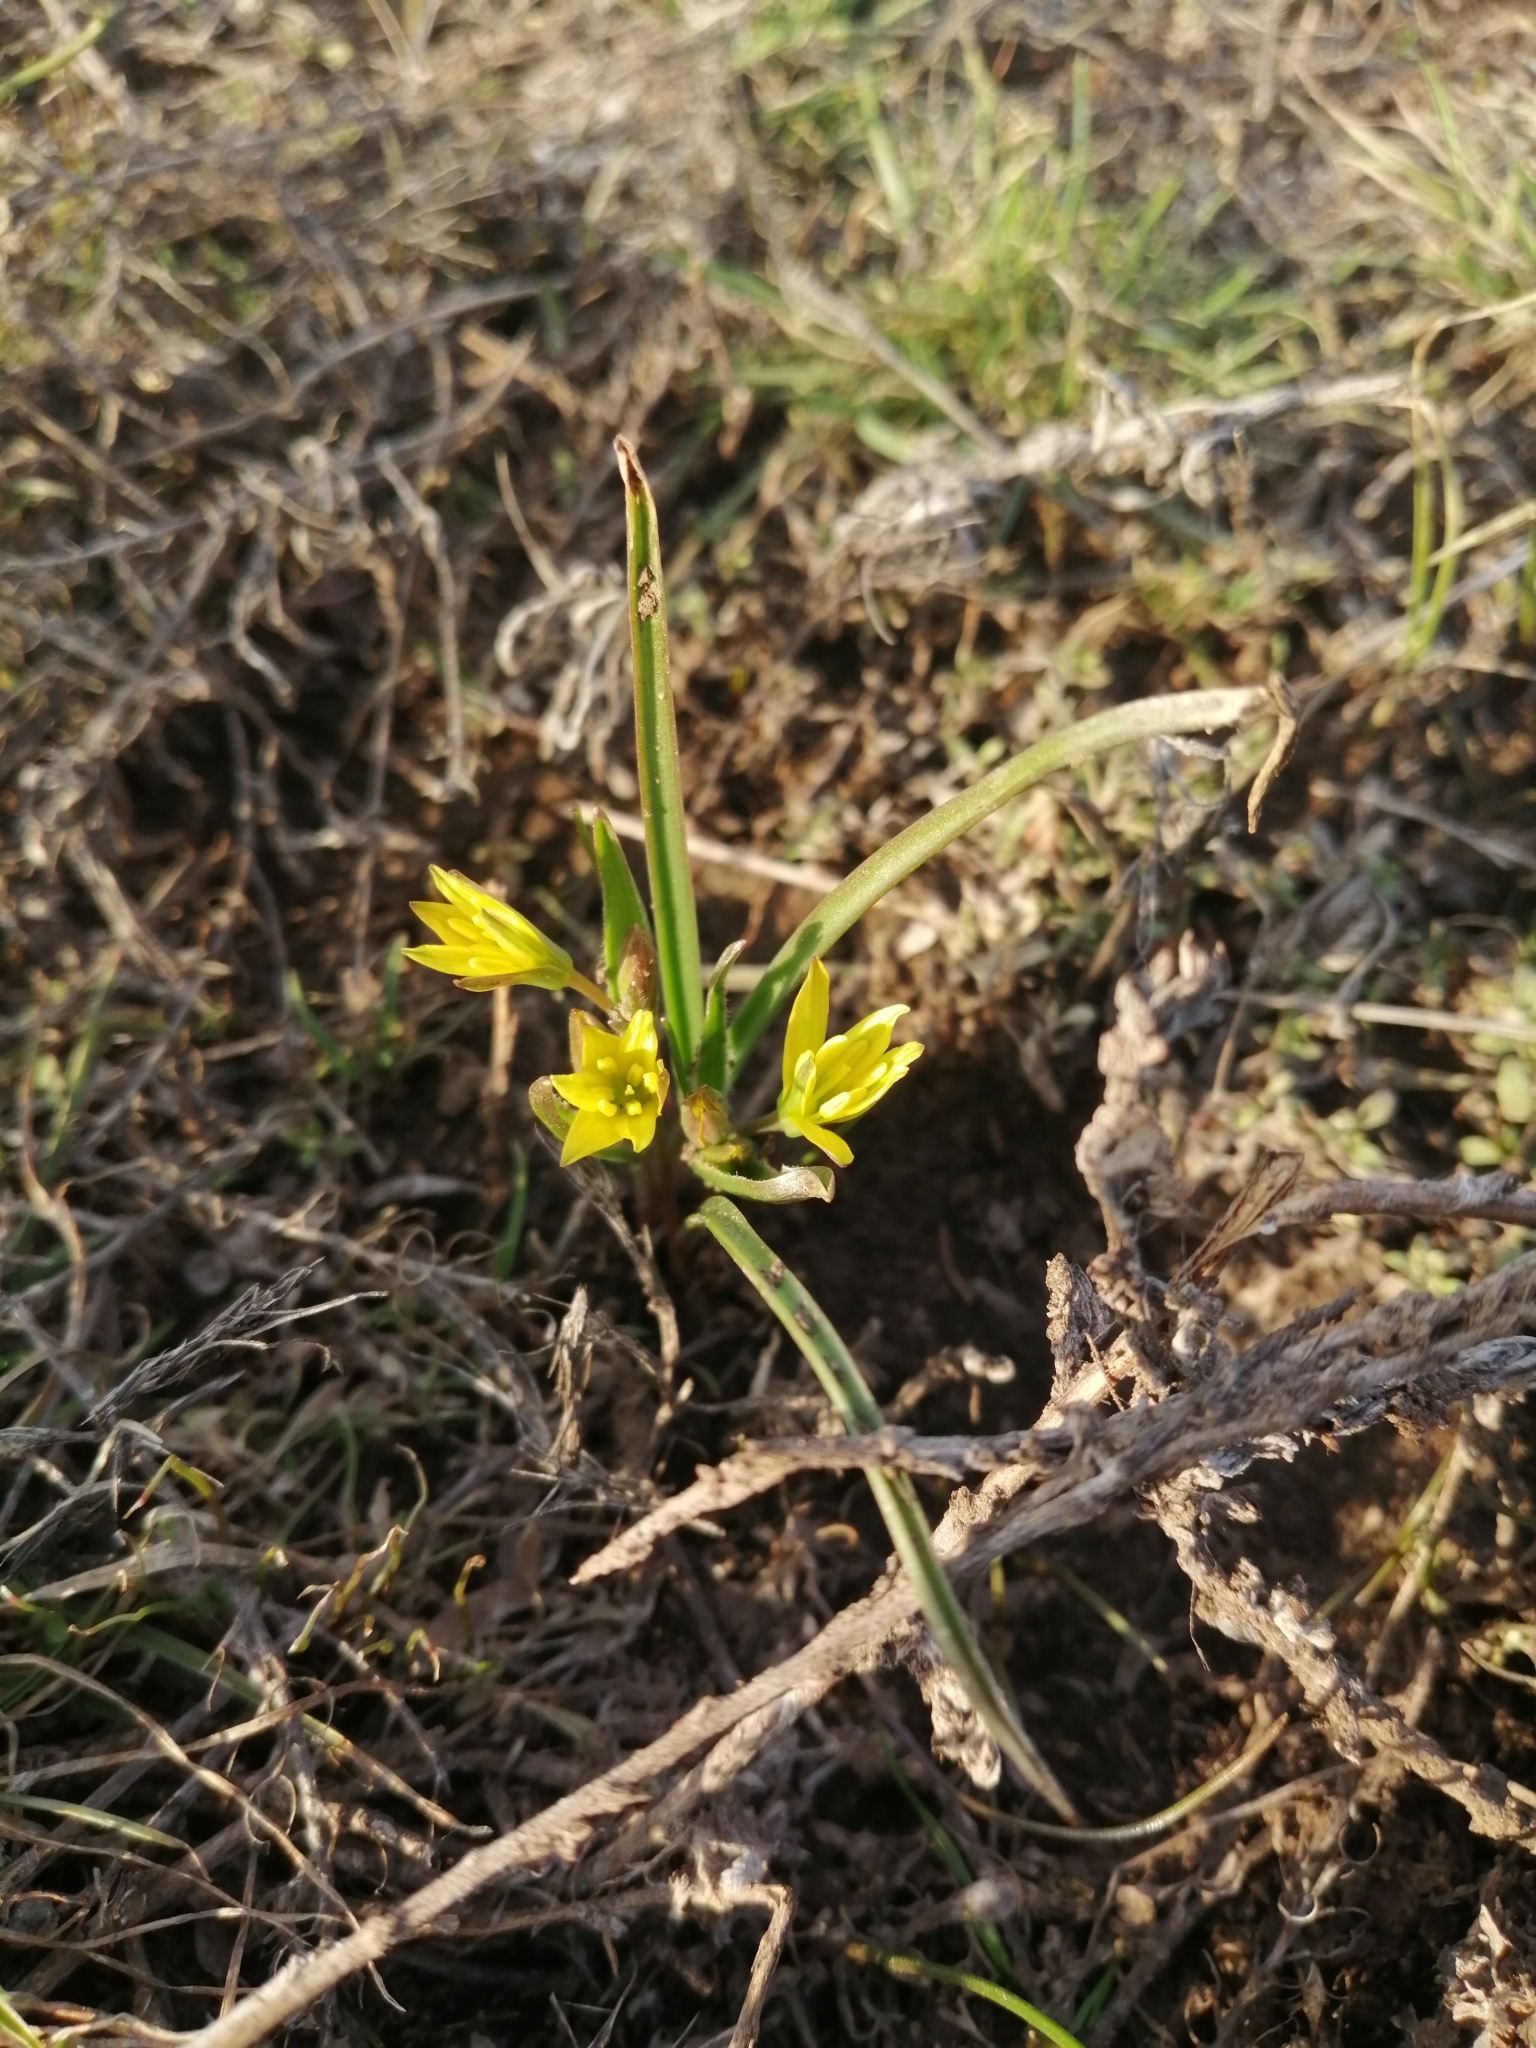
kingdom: Plantae
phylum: Tracheophyta
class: Liliopsida
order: Liliales
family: Liliaceae
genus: Gagea
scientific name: Gagea pusilla
